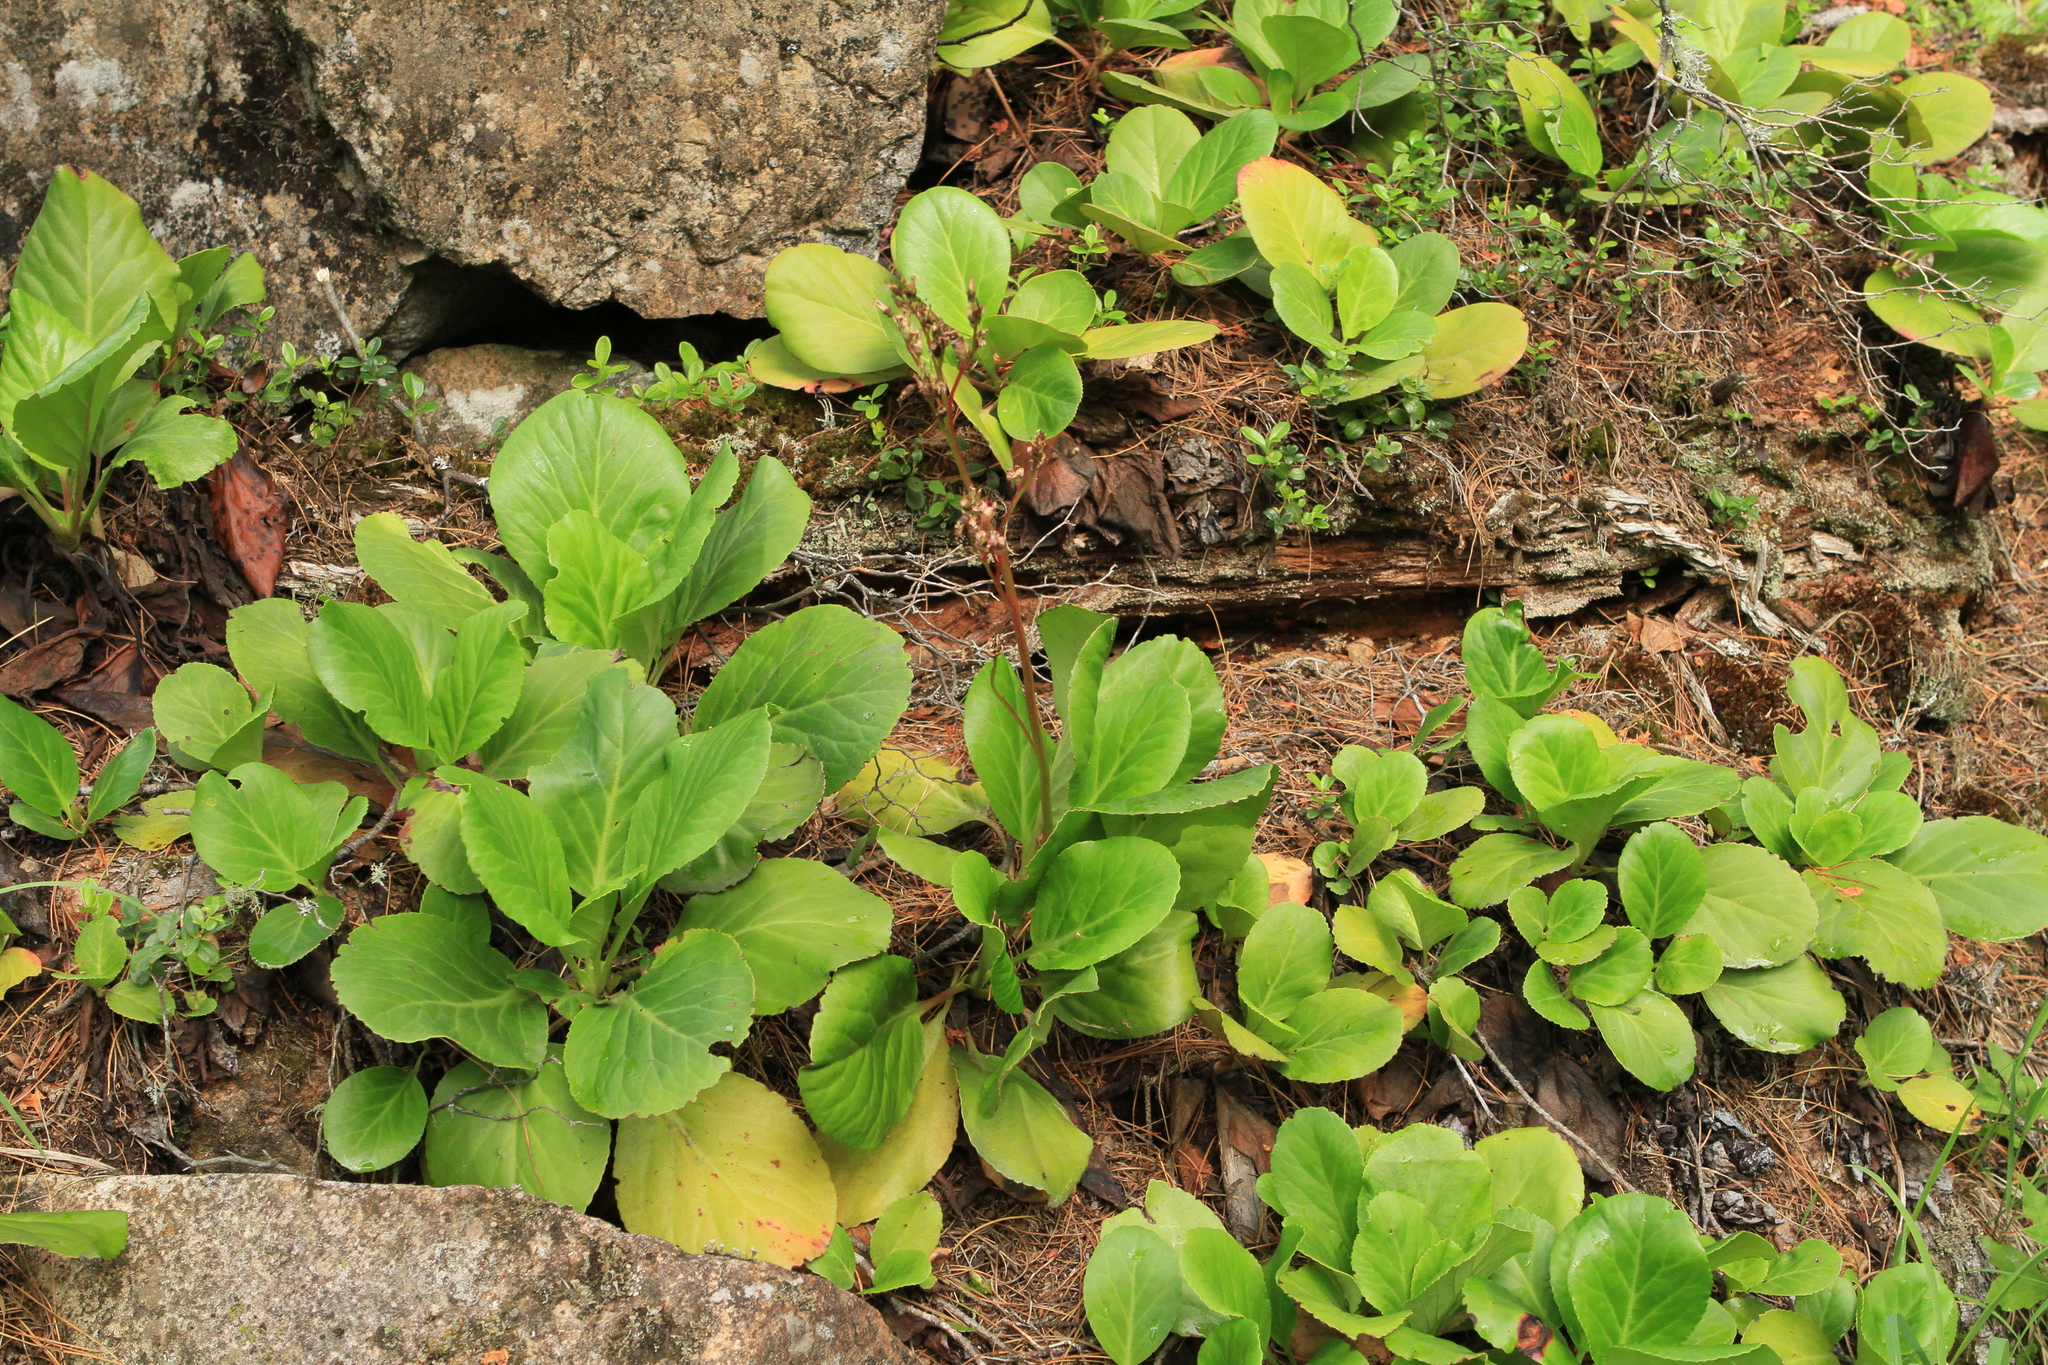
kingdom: Plantae
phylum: Tracheophyta
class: Magnoliopsida
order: Saxifragales
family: Saxifragaceae
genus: Bergenia
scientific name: Bergenia crassifolia
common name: Elephant-ears
